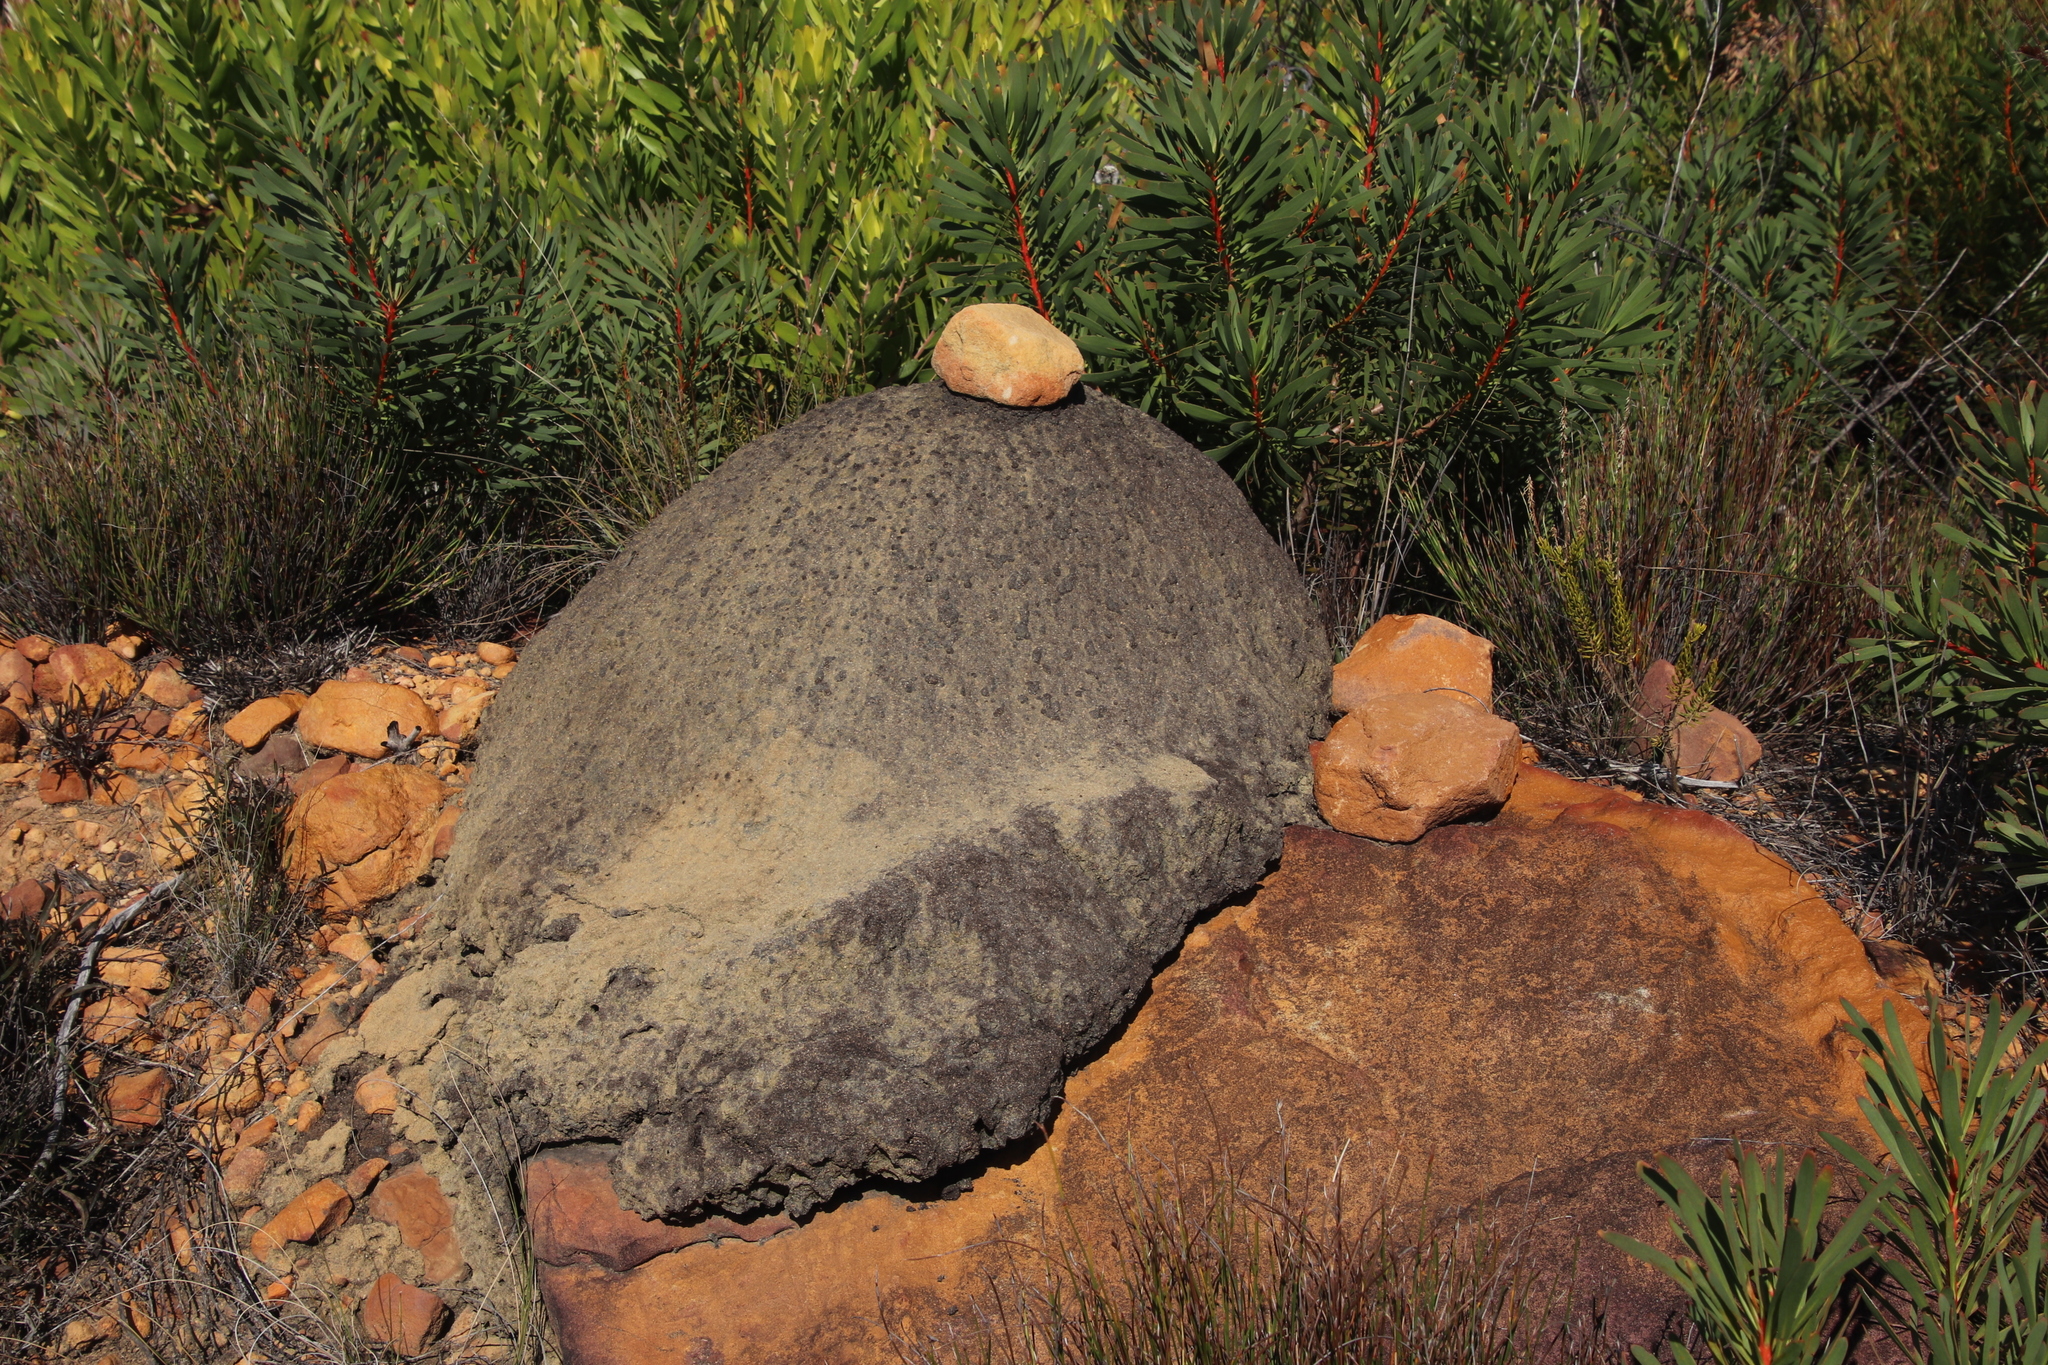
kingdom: Animalia
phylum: Arthropoda
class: Insecta
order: Blattodea
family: Termitidae
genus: Amitermes
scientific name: Amitermes hastatus
